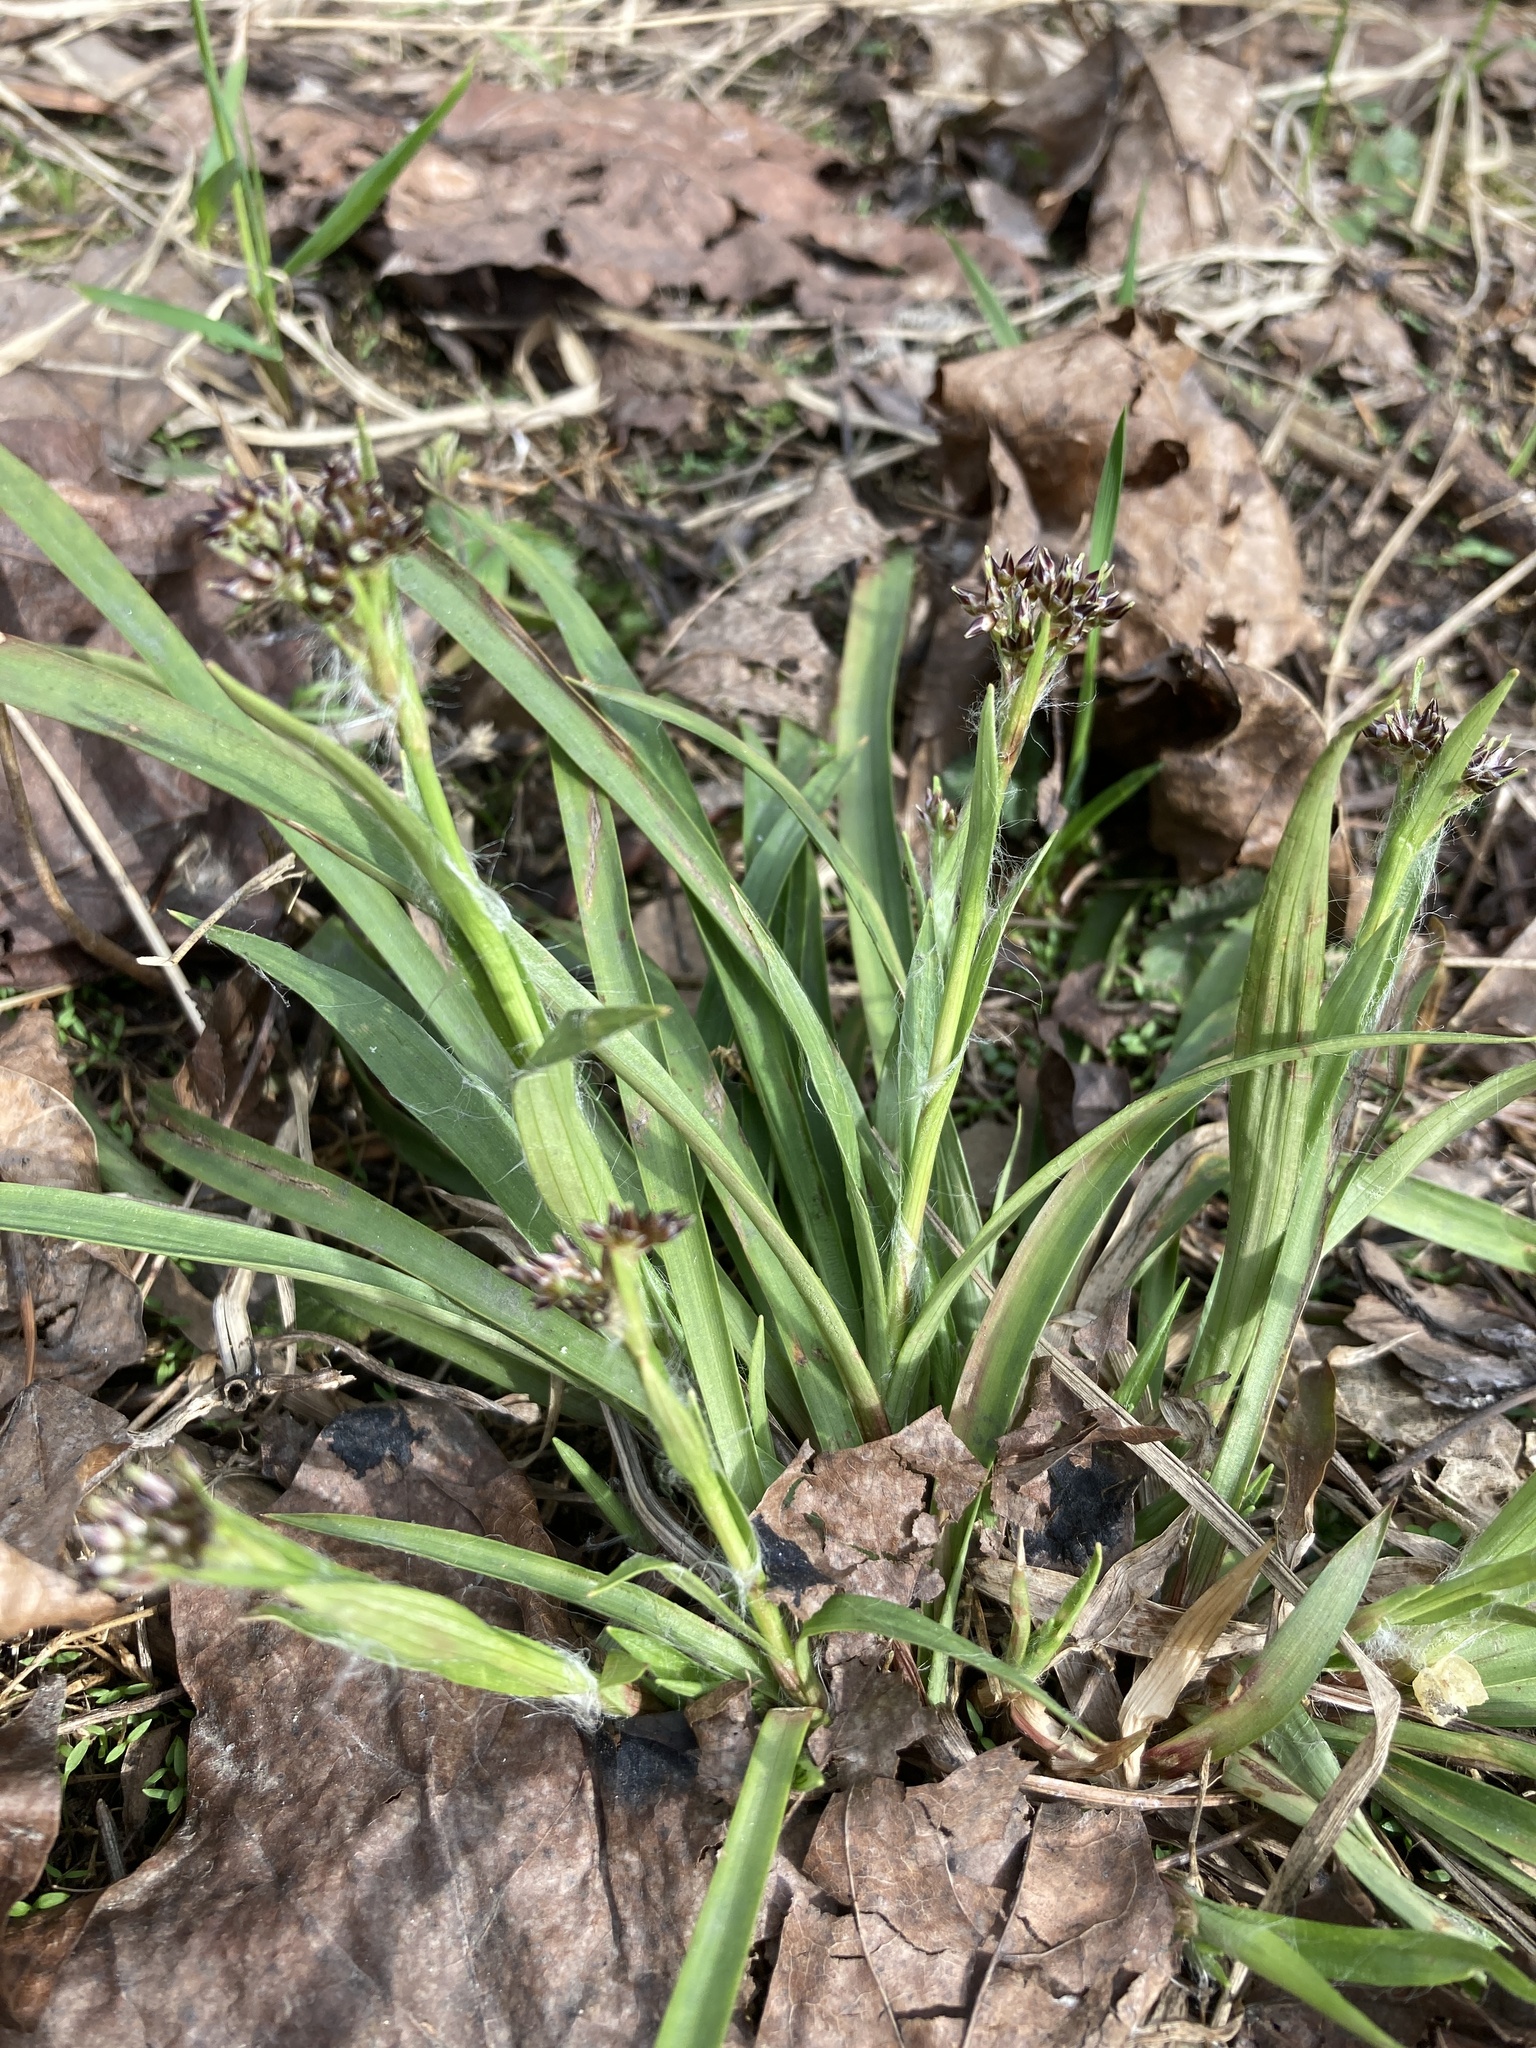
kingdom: Plantae
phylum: Tracheophyta
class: Liliopsida
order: Poales
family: Juncaceae
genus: Luzula
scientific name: Luzula pilosa
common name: Hairy wood-rush
